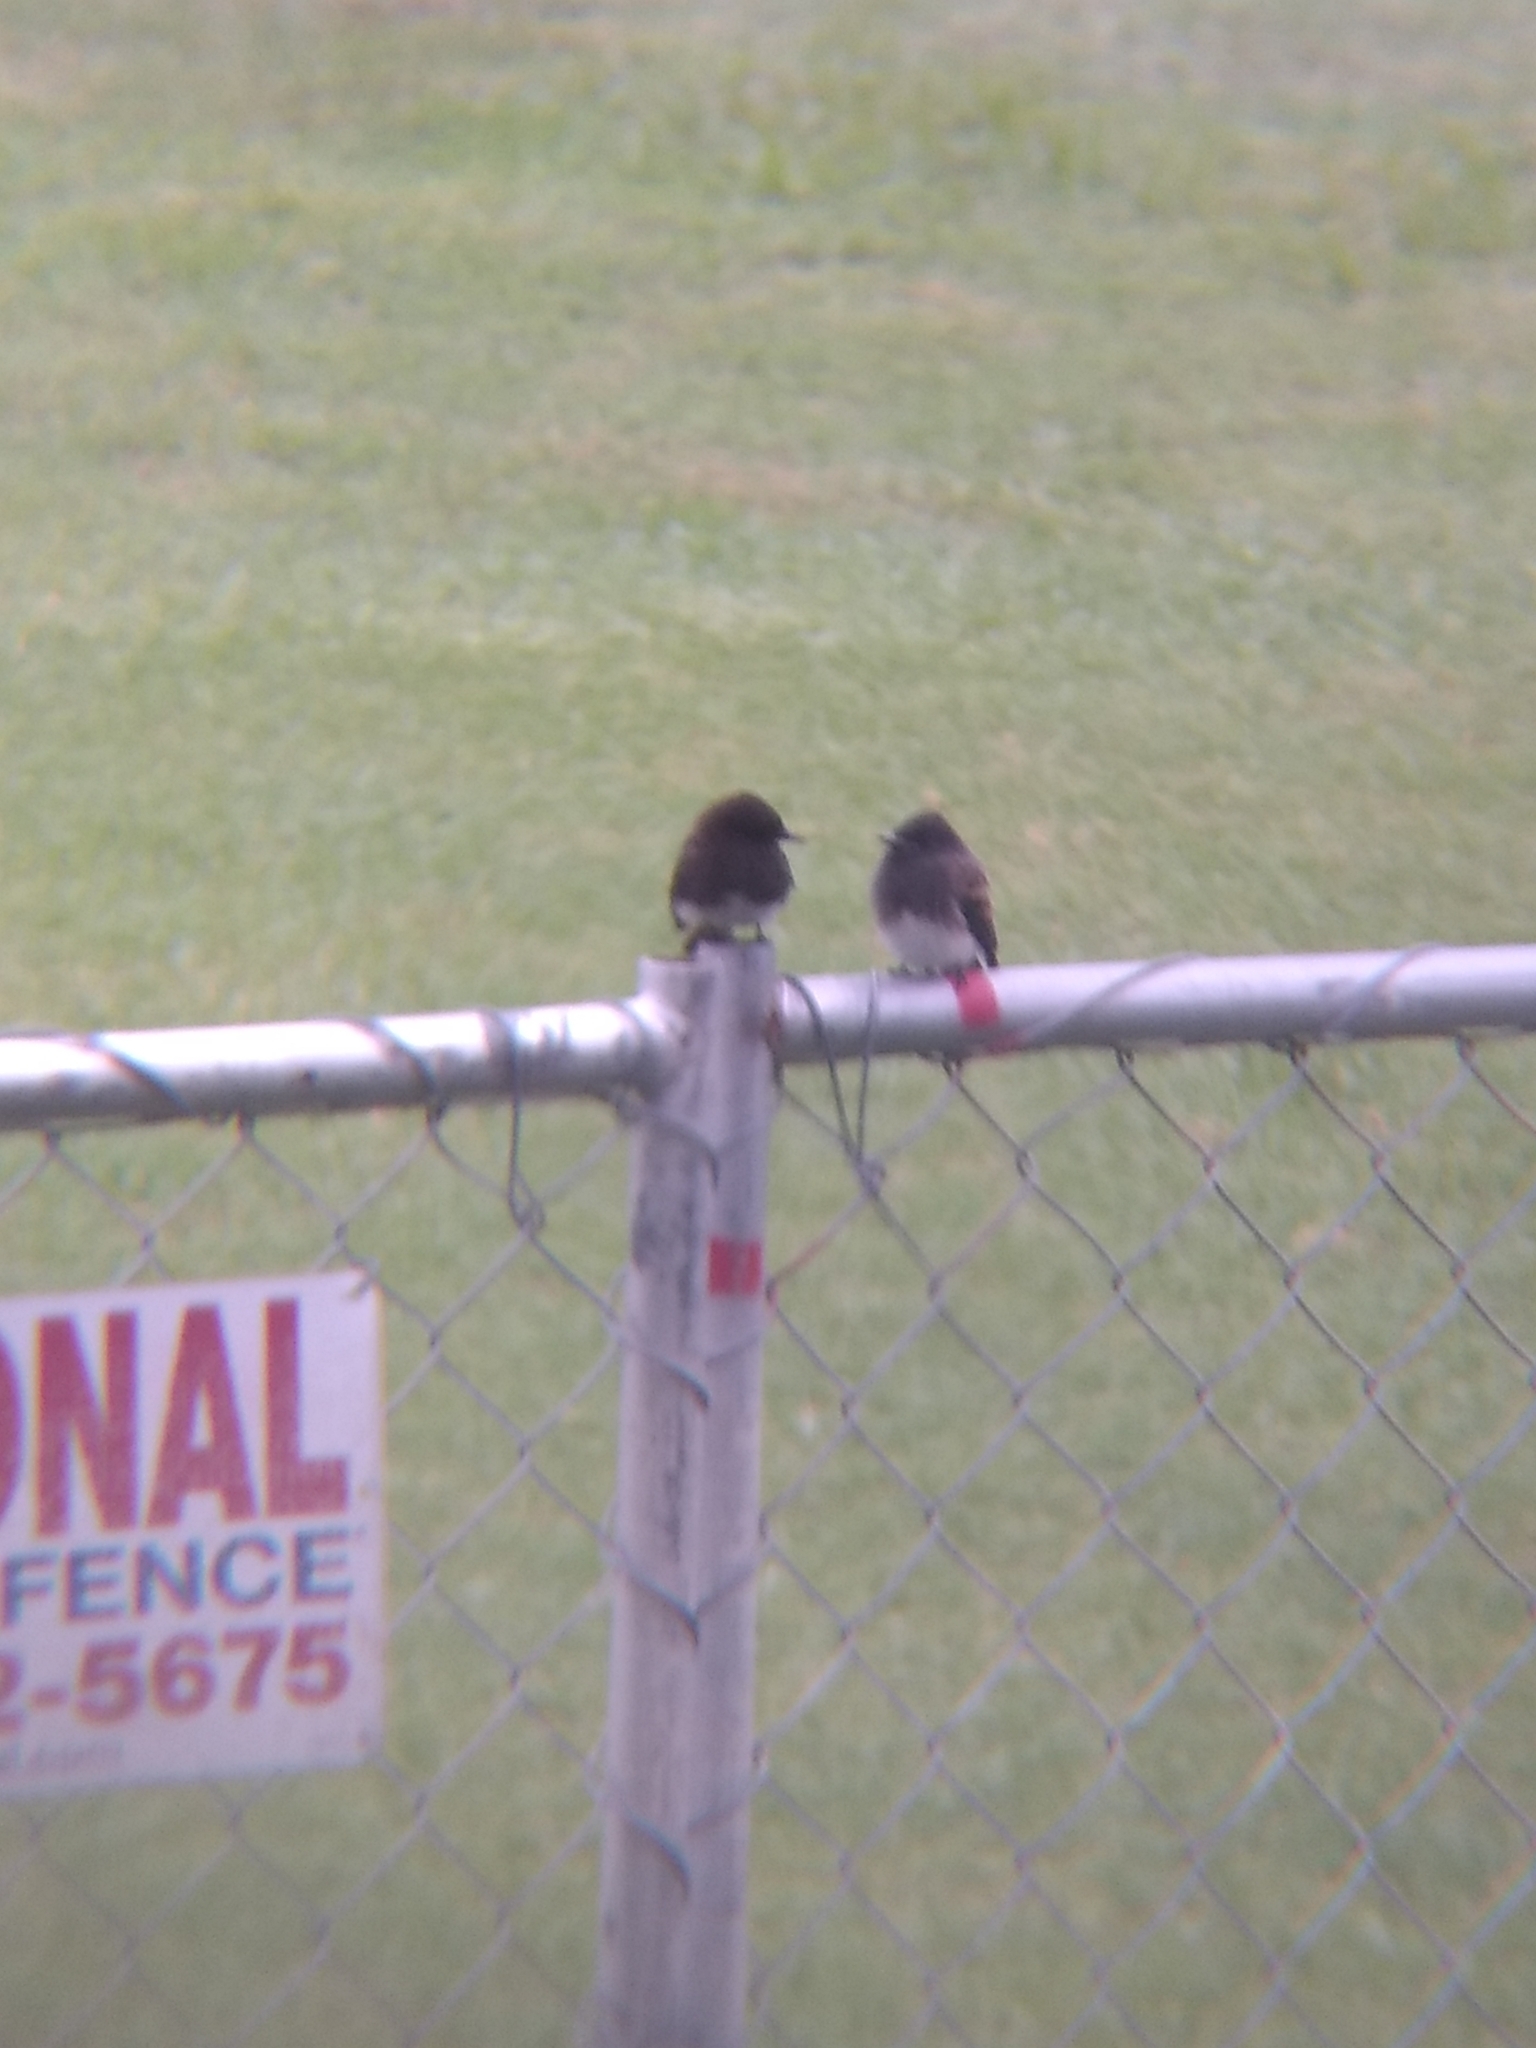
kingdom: Animalia
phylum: Chordata
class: Aves
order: Passeriformes
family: Tyrannidae
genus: Sayornis
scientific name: Sayornis nigricans
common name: Black phoebe
